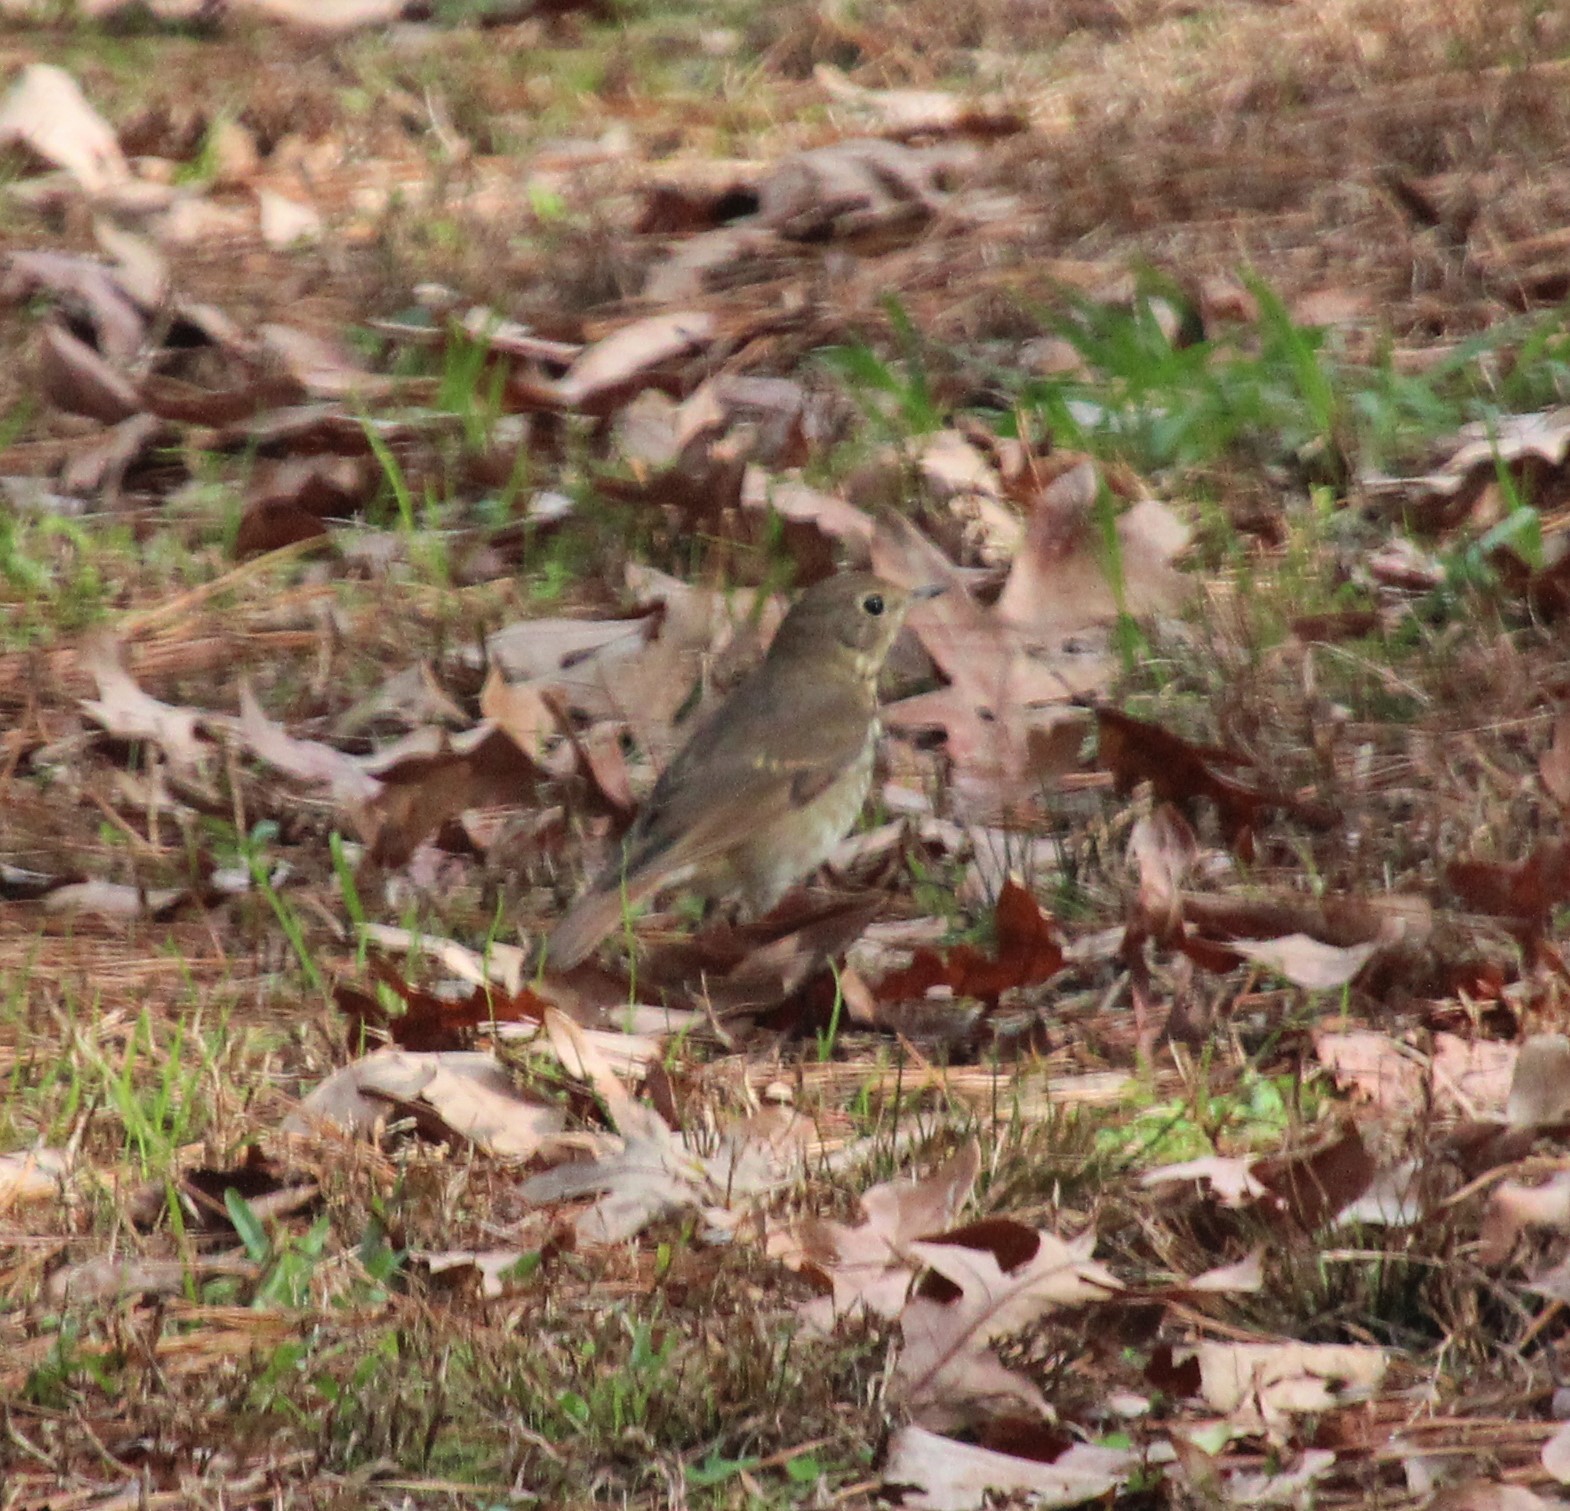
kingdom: Animalia
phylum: Chordata
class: Aves
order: Passeriformes
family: Turdidae
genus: Catharus
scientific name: Catharus guttatus
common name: Hermit thrush
